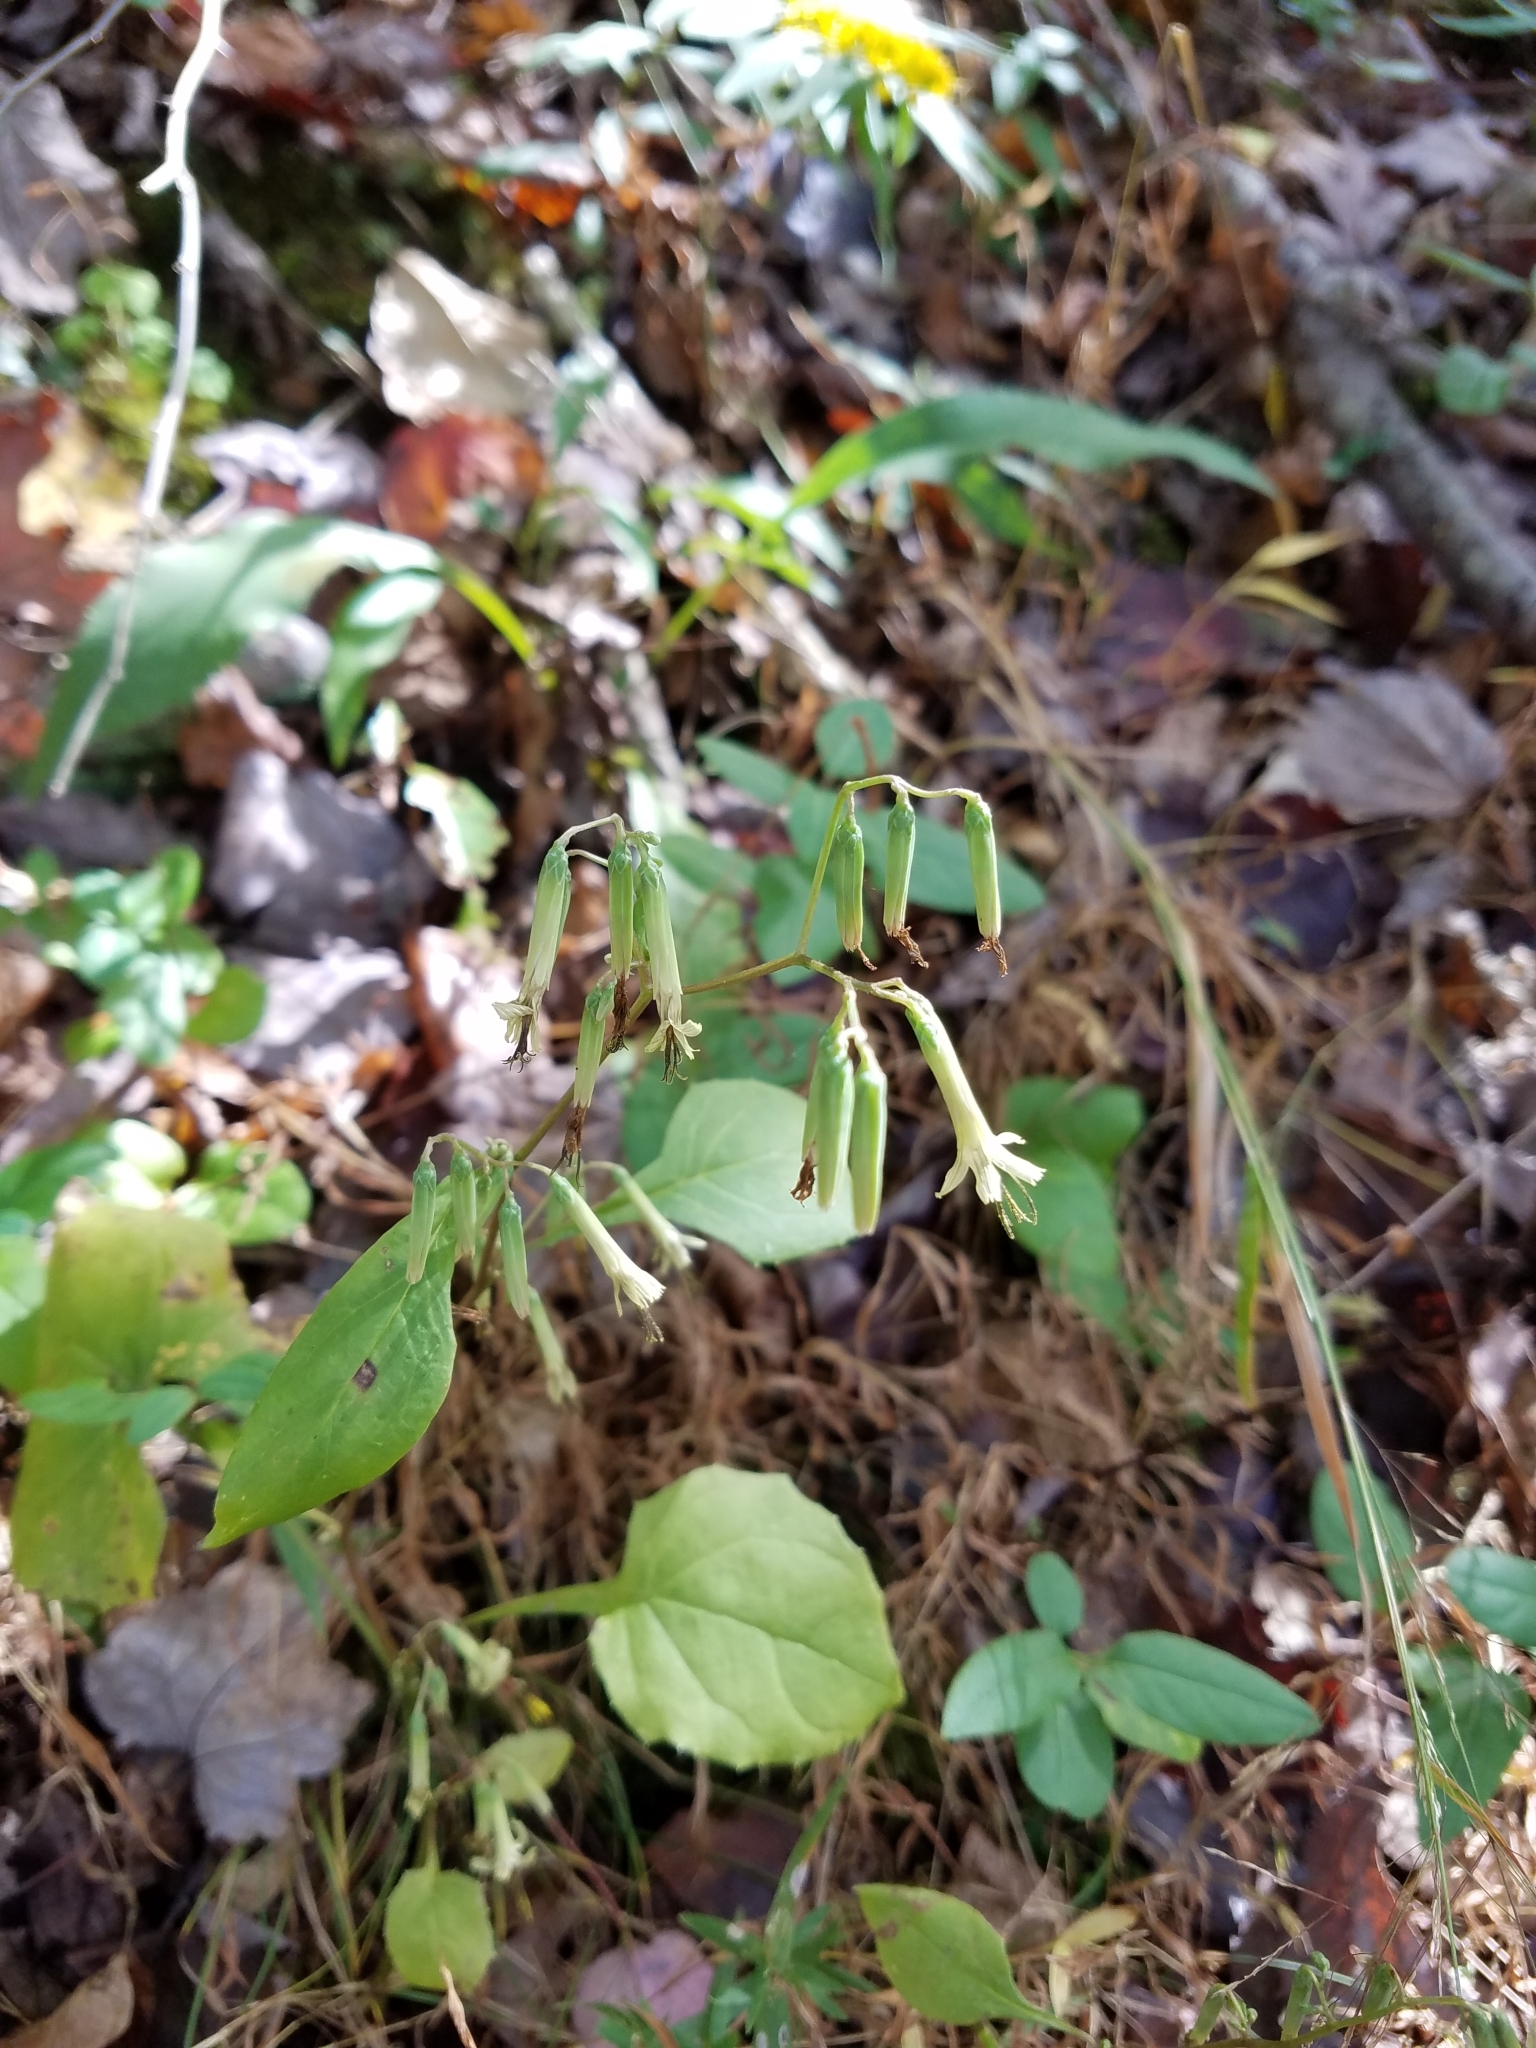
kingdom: Plantae
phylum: Tracheophyta
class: Magnoliopsida
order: Asterales
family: Asteraceae
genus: Nabalus
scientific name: Nabalus altissima
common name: Tall rattlesnakeroot
